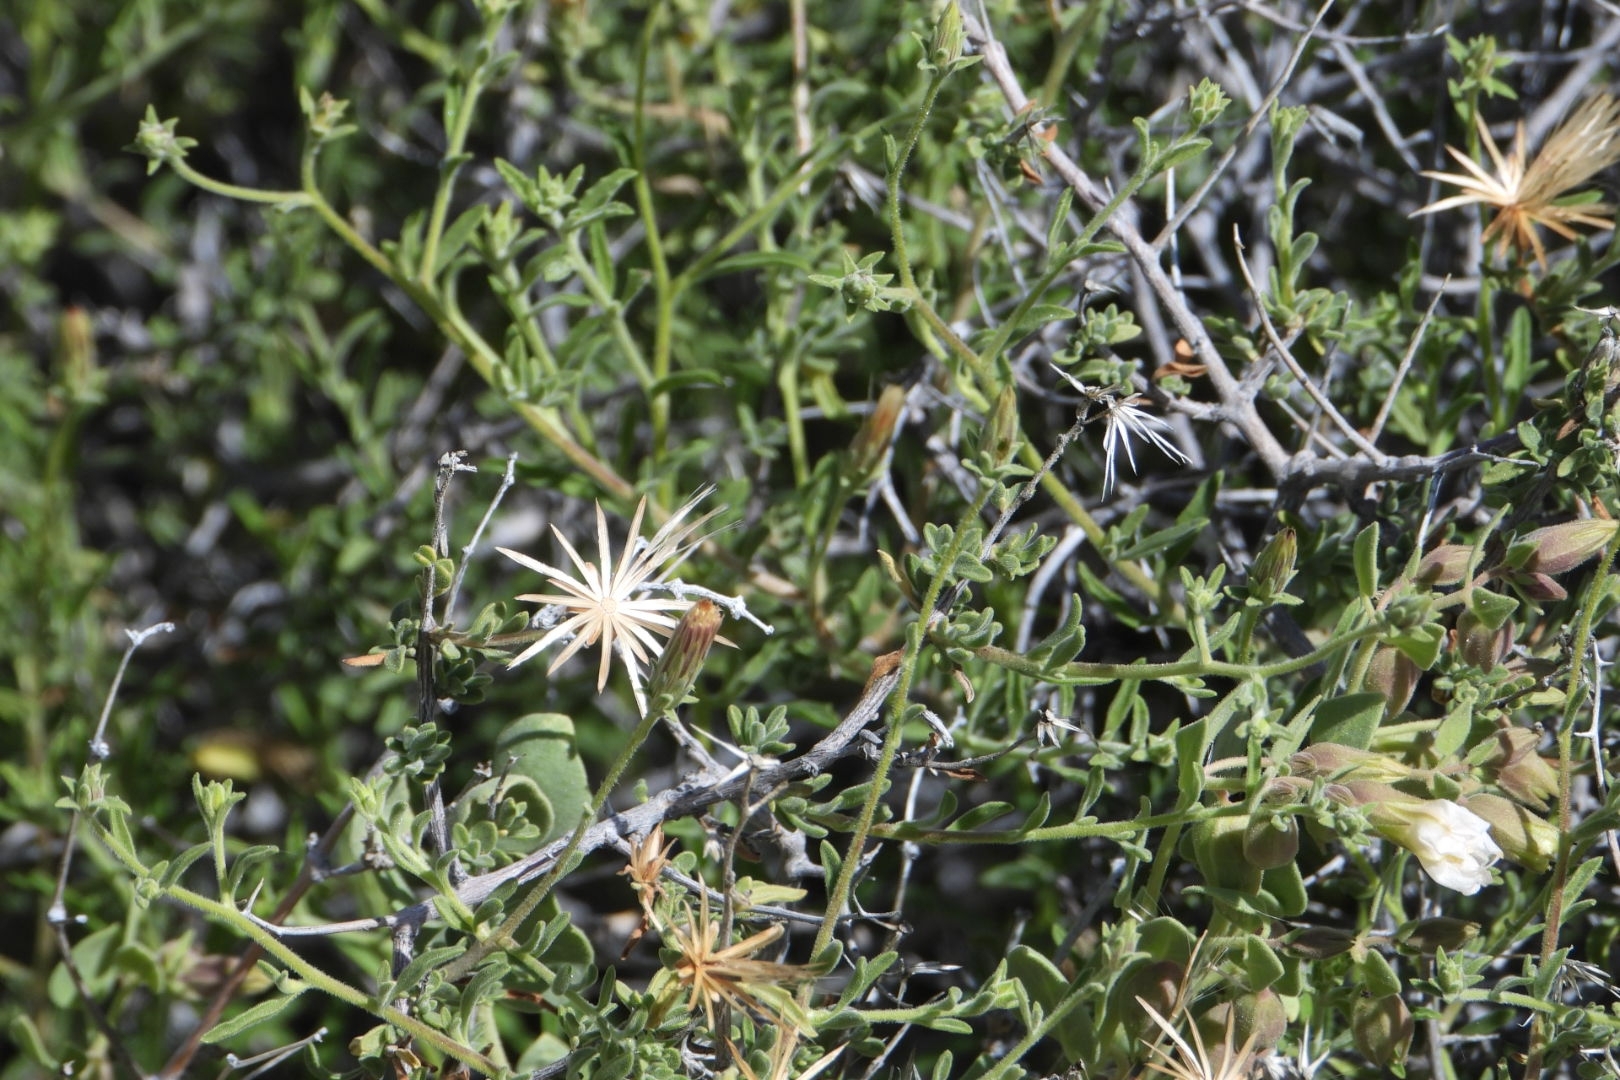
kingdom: Plantae
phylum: Tracheophyta
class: Magnoliopsida
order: Asterales
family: Asteraceae
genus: Brickellia
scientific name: Brickellia frutescens
